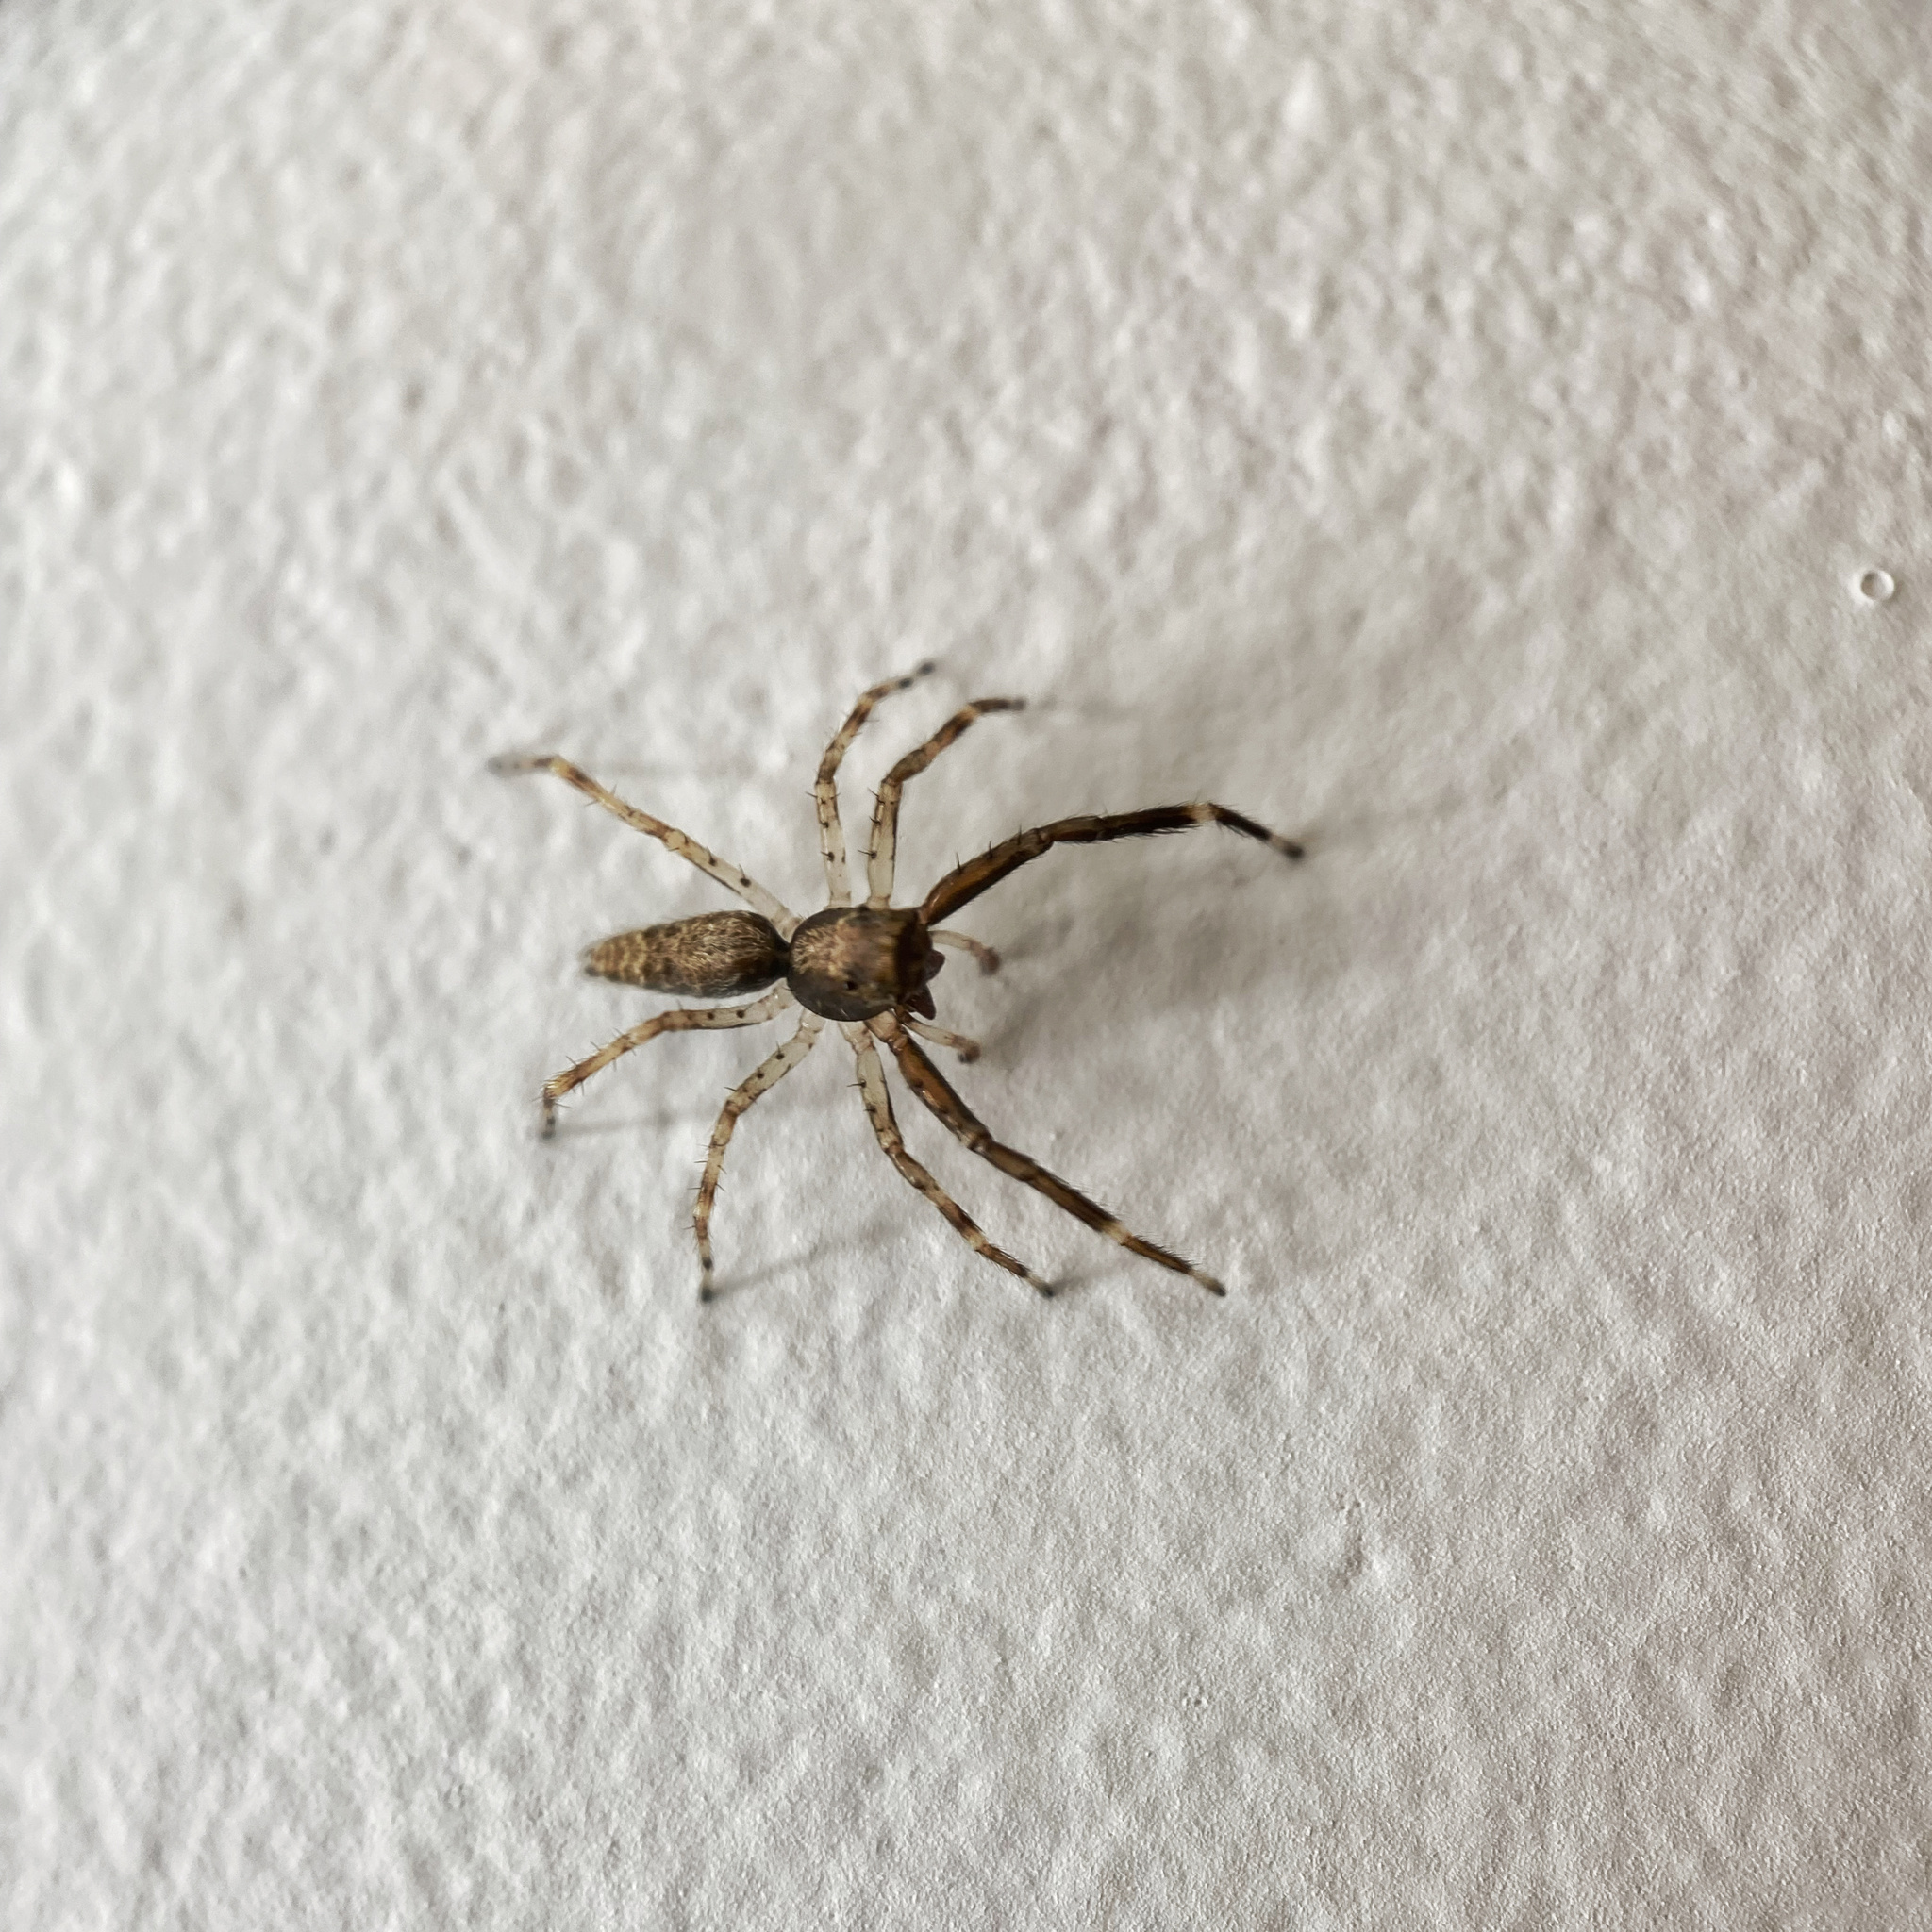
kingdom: Animalia
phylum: Arthropoda
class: Arachnida
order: Araneae
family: Salticidae
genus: Helpis
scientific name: Helpis minitabunda
